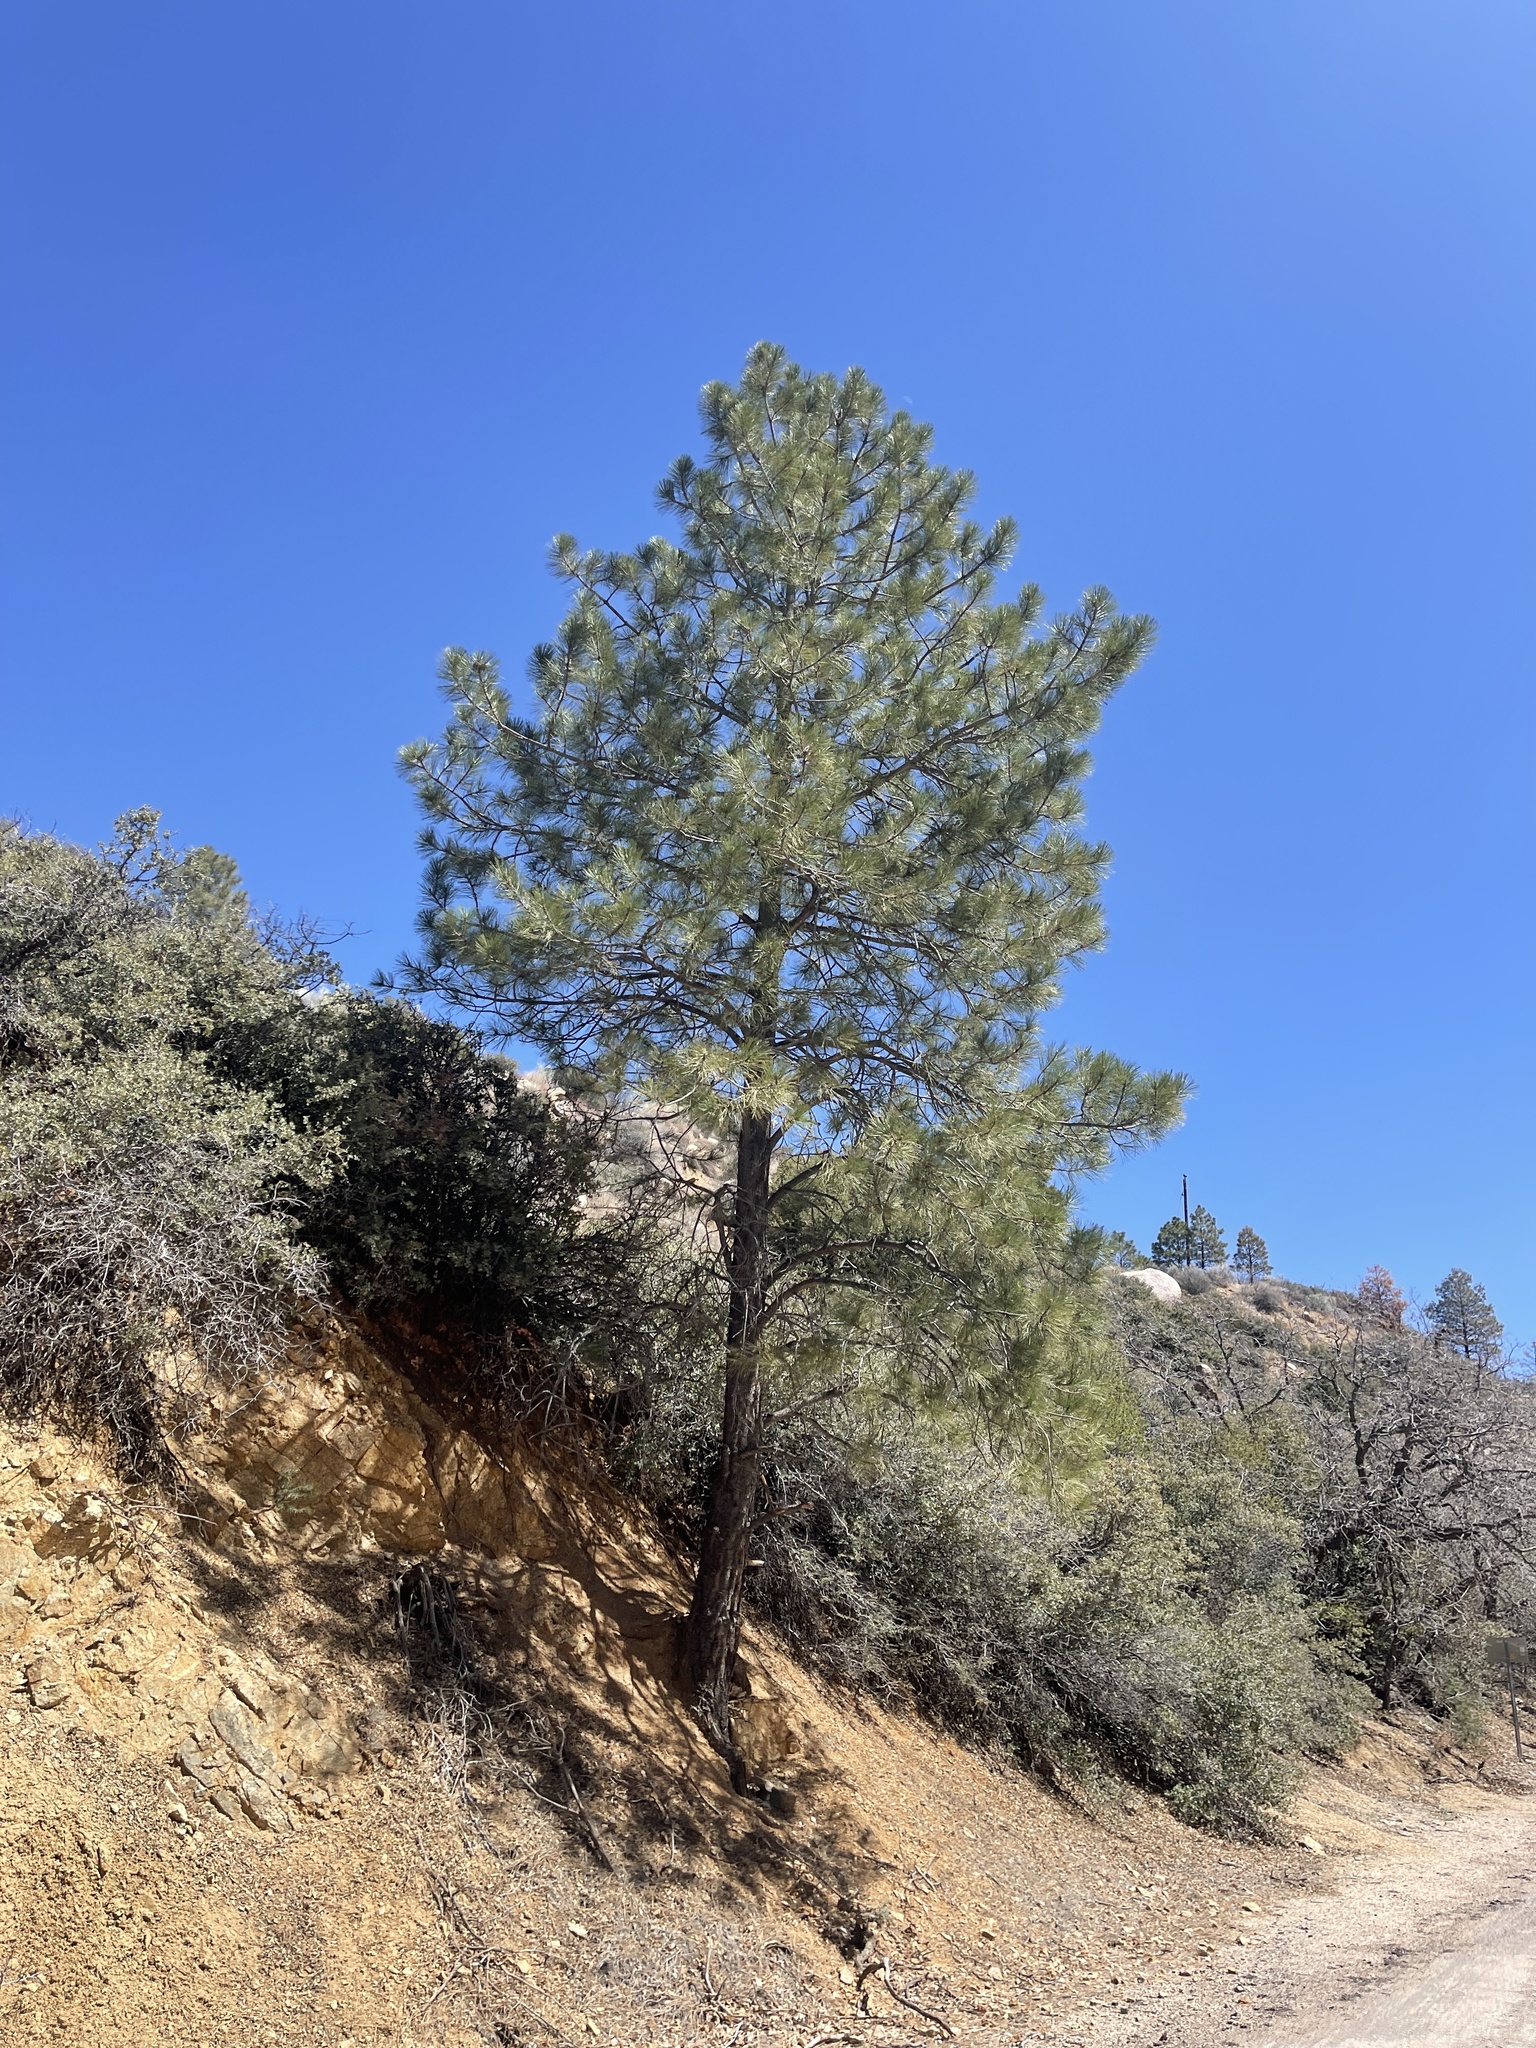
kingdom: Plantae
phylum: Tracheophyta
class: Pinopsida
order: Pinales
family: Pinaceae
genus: Pinus
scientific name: Pinus ponderosa
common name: Western yellow-pine
